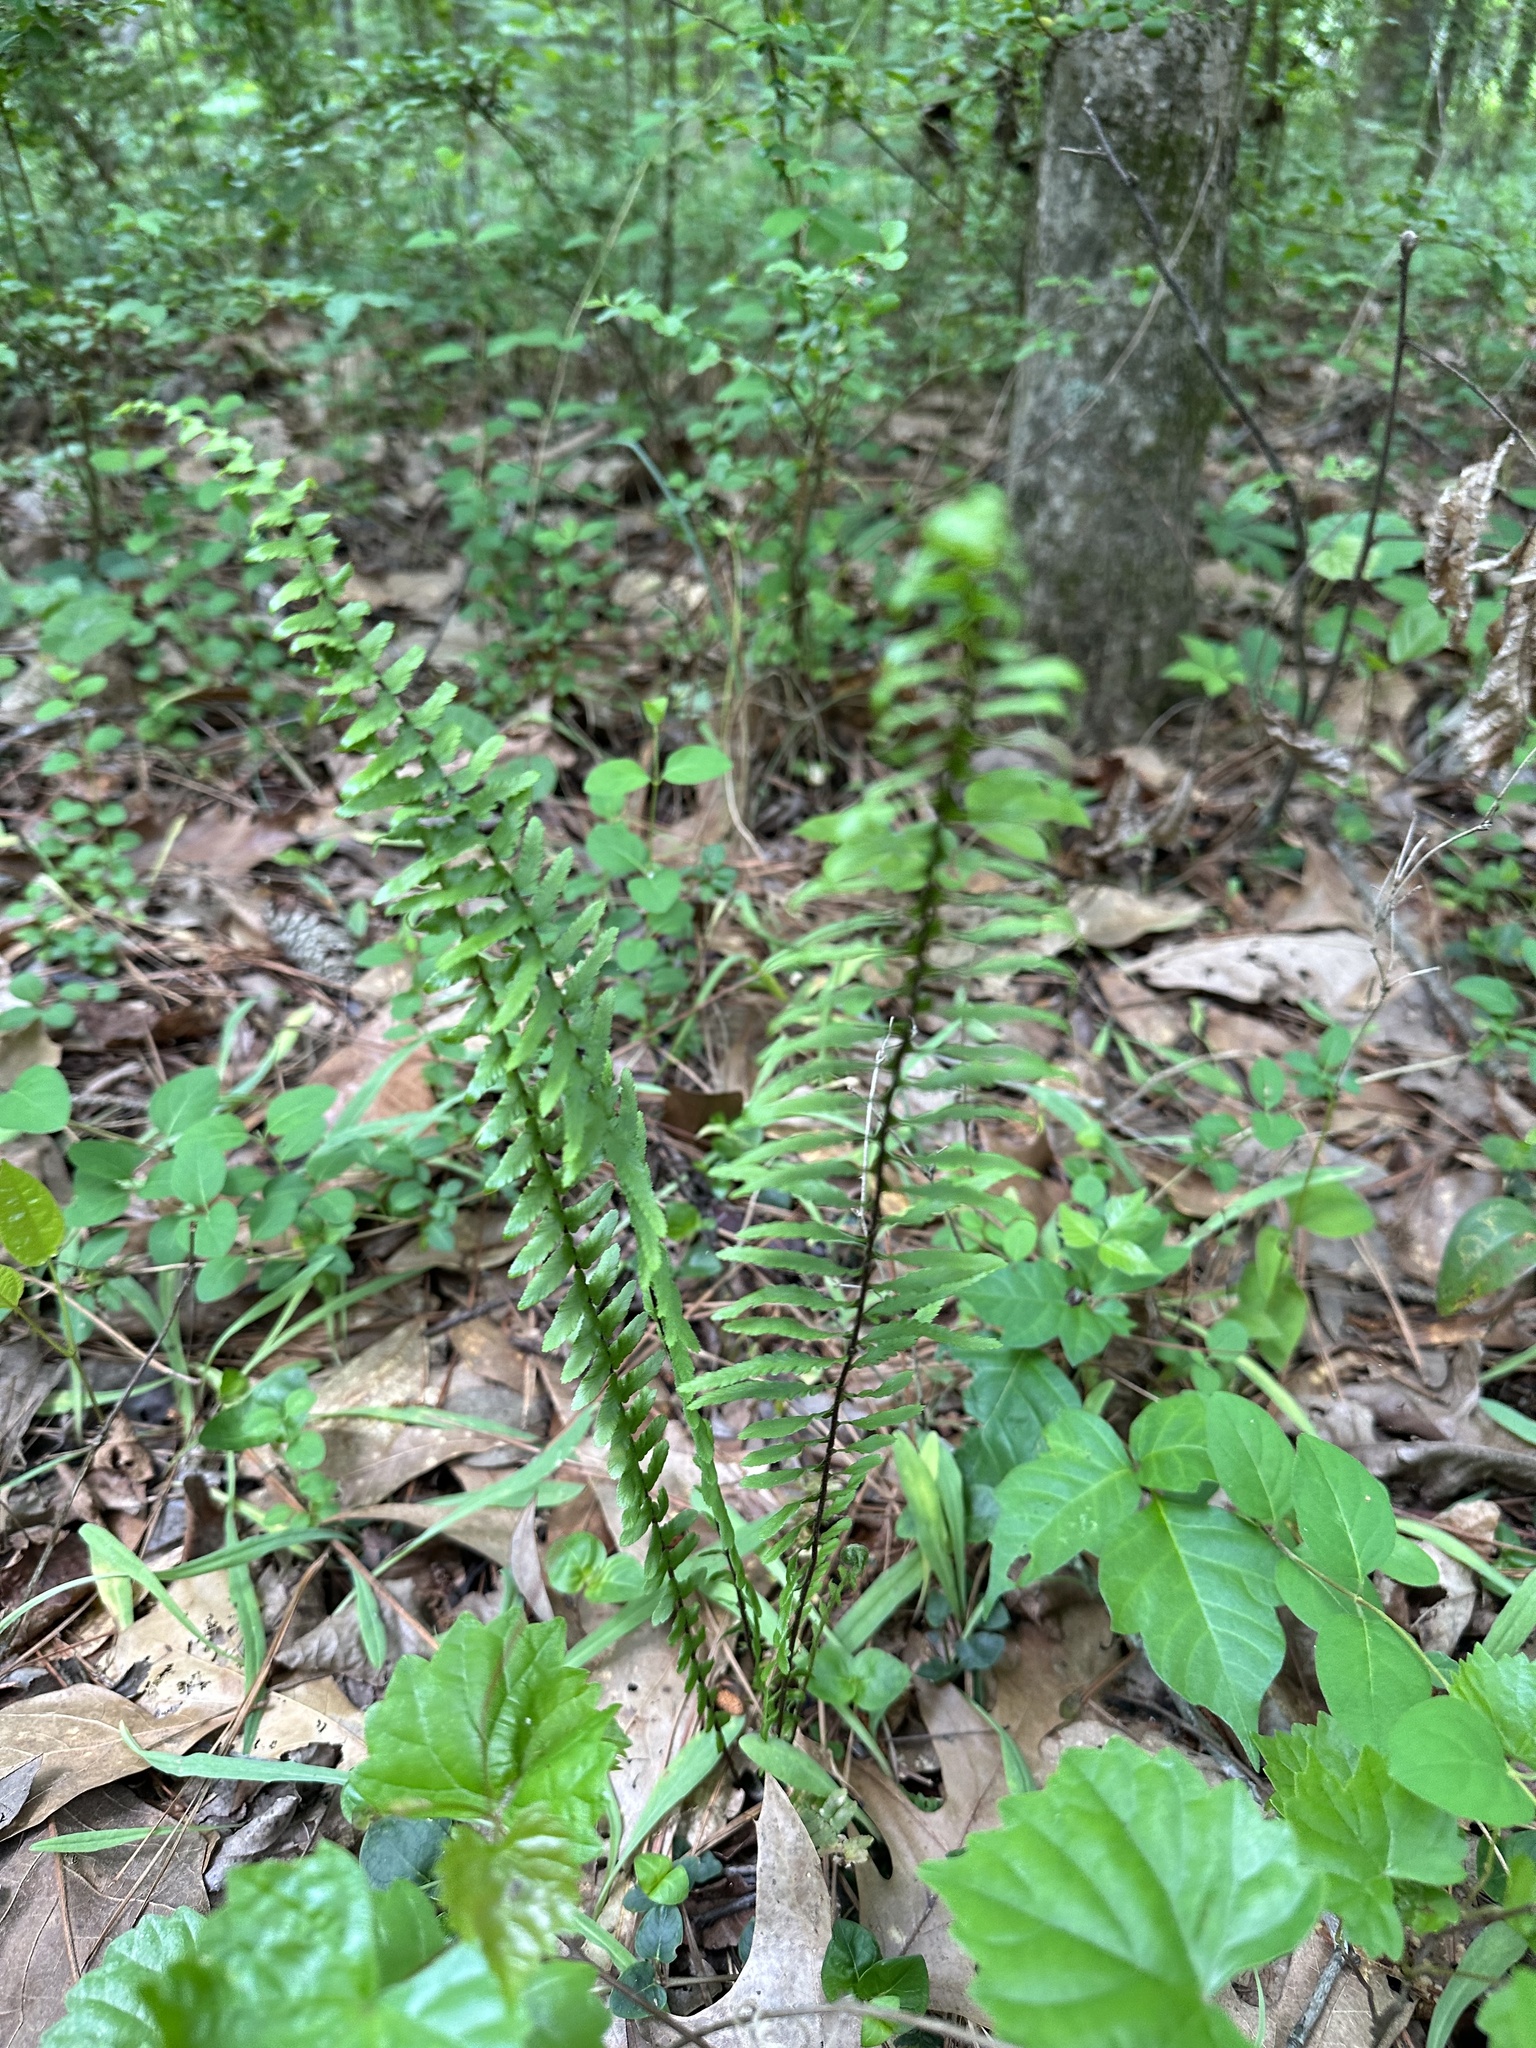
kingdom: Plantae
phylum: Tracheophyta
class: Polypodiopsida
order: Polypodiales
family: Aspleniaceae
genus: Asplenium
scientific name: Asplenium platyneuron
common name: Ebony spleenwort
